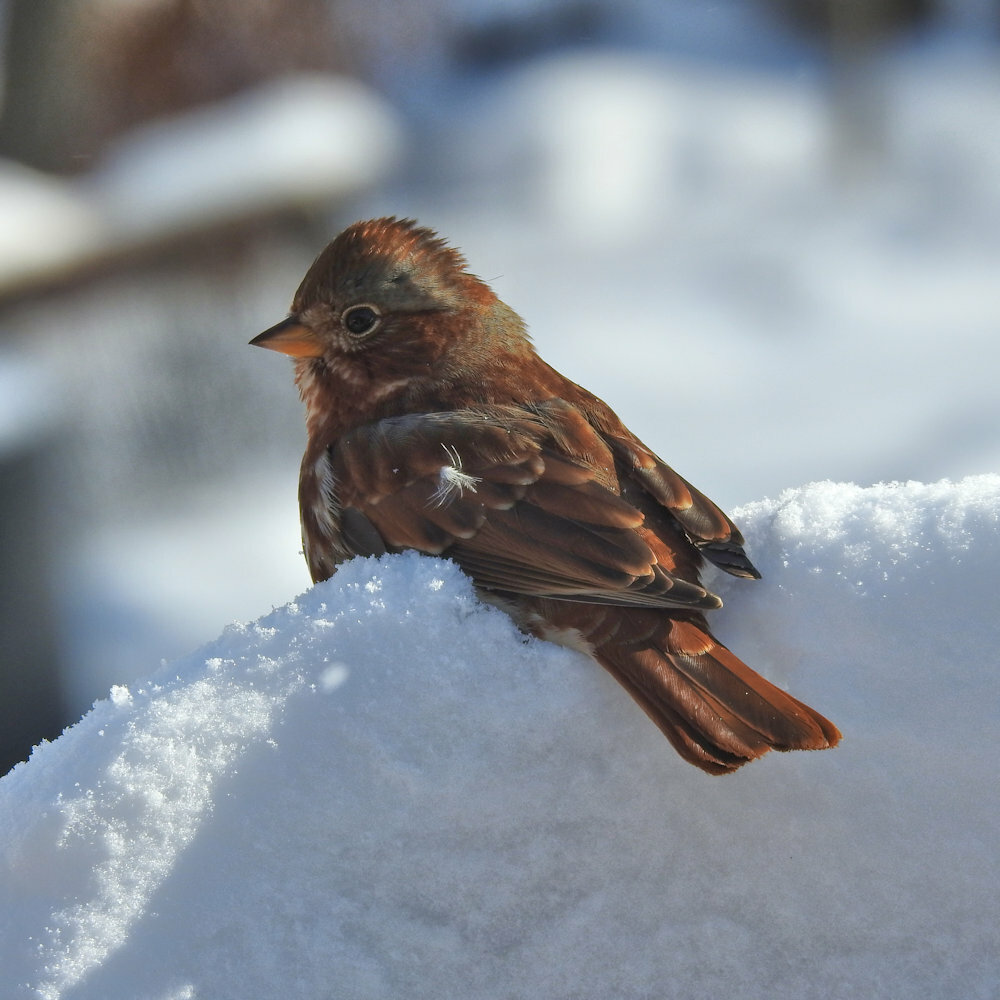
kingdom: Animalia
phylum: Chordata
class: Aves
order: Passeriformes
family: Passerellidae
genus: Passerella
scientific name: Passerella iliaca
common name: Fox sparrow
